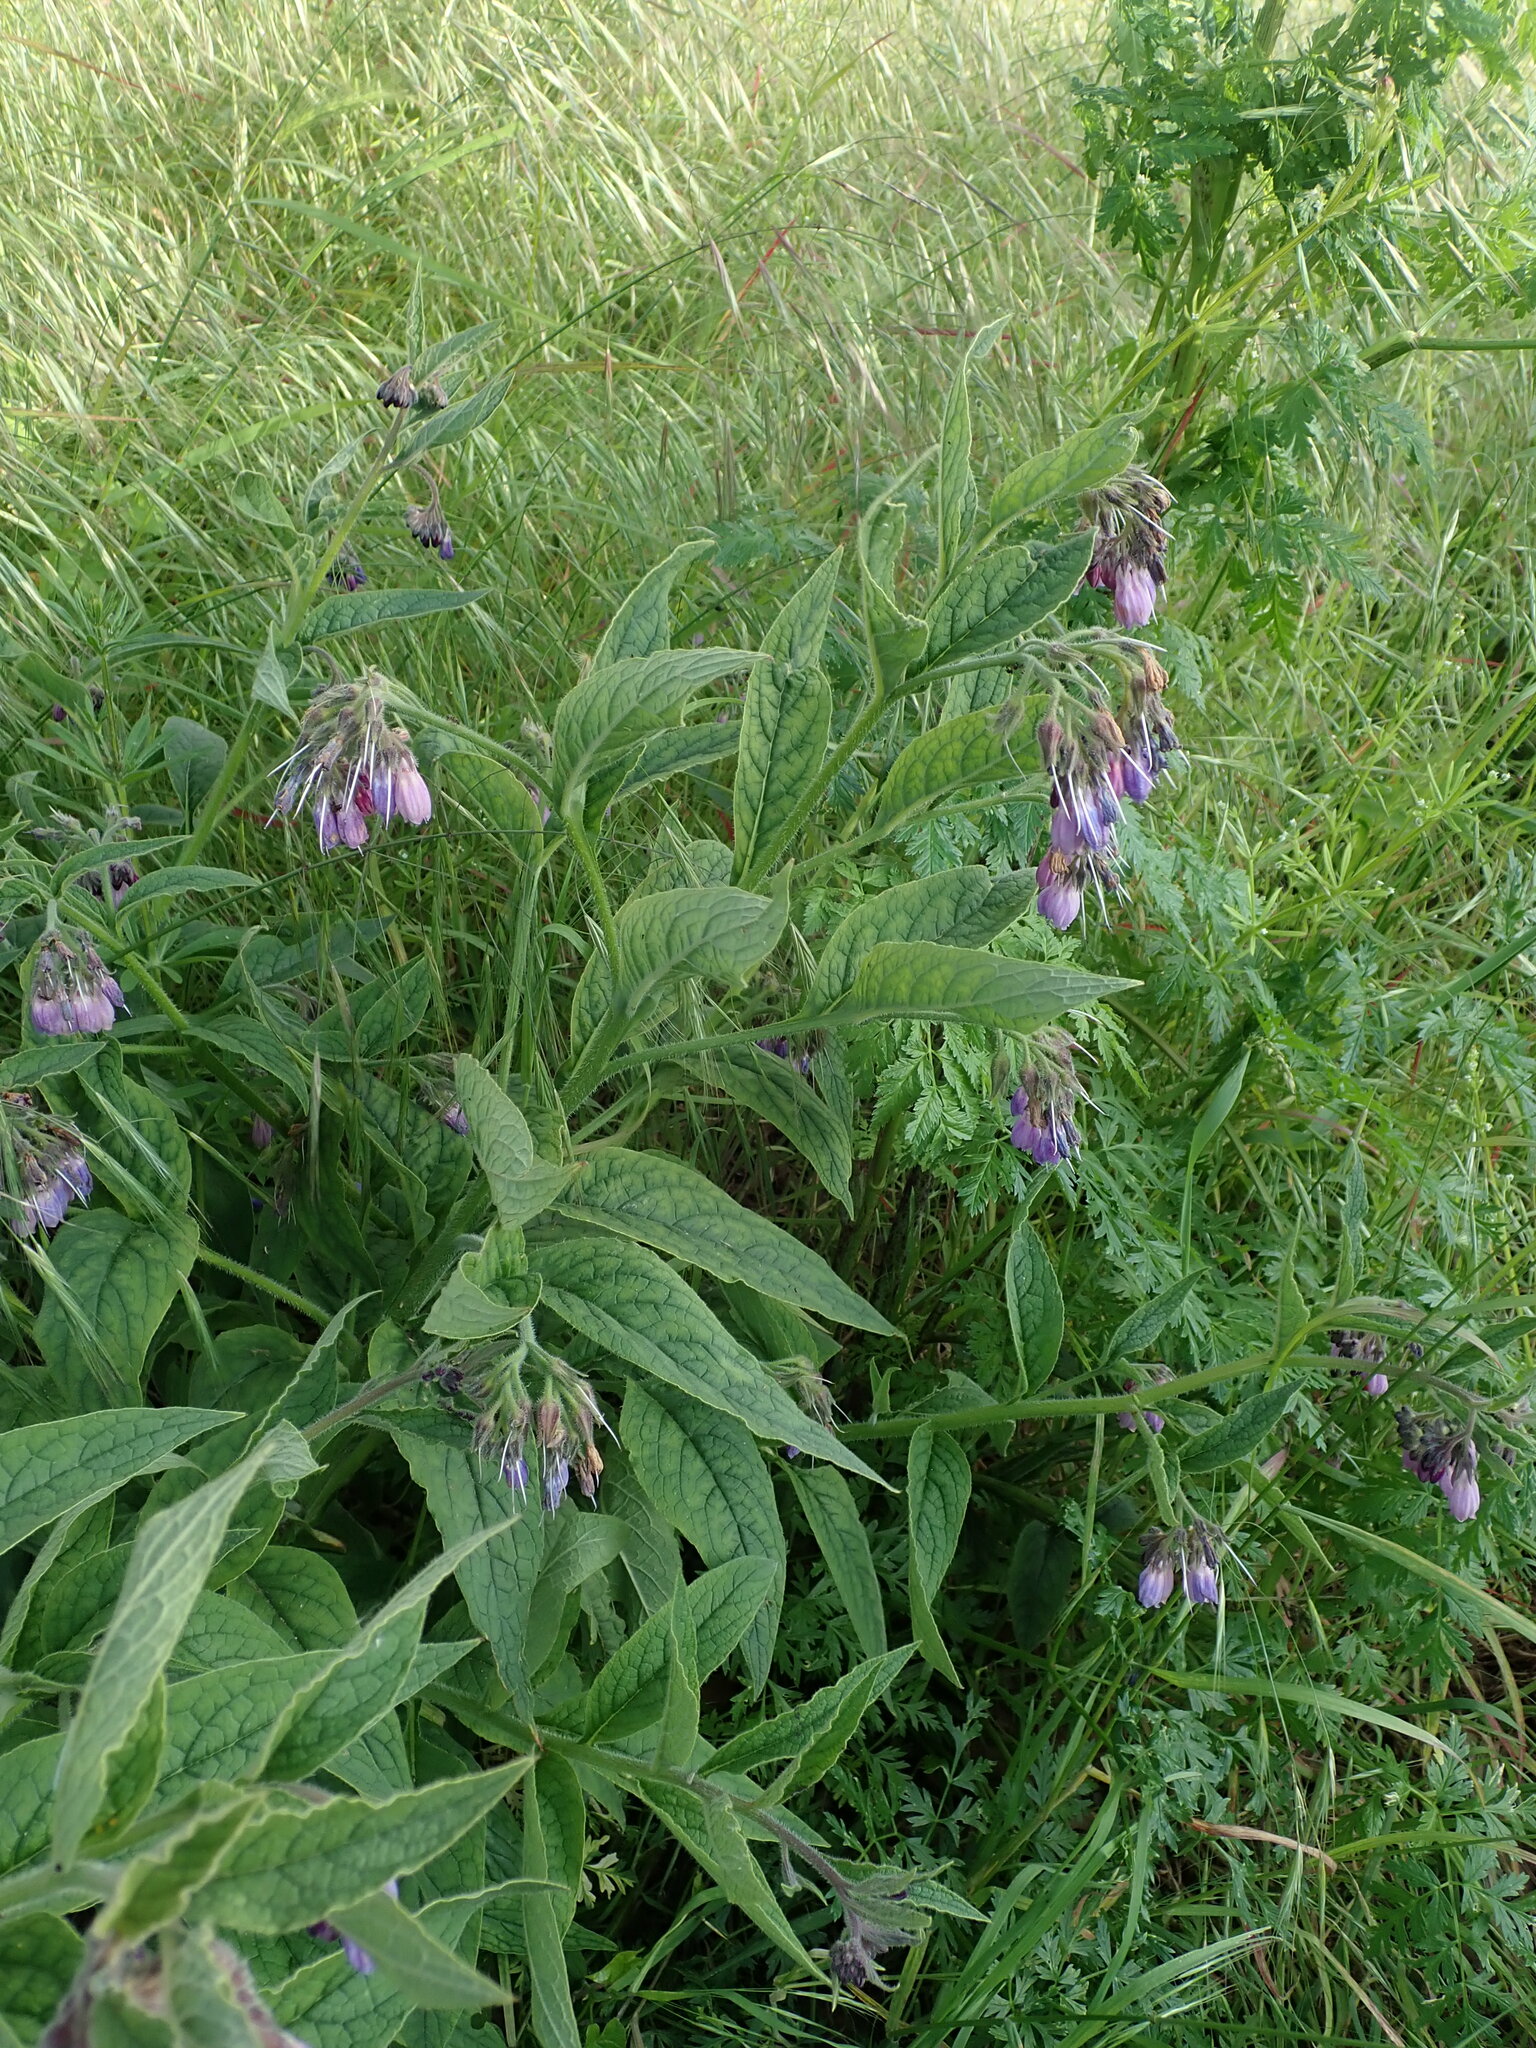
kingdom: Plantae
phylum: Tracheophyta
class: Magnoliopsida
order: Boraginales
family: Boraginaceae
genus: Symphytum
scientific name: Symphytum uplandicum
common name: Russian comfrey
